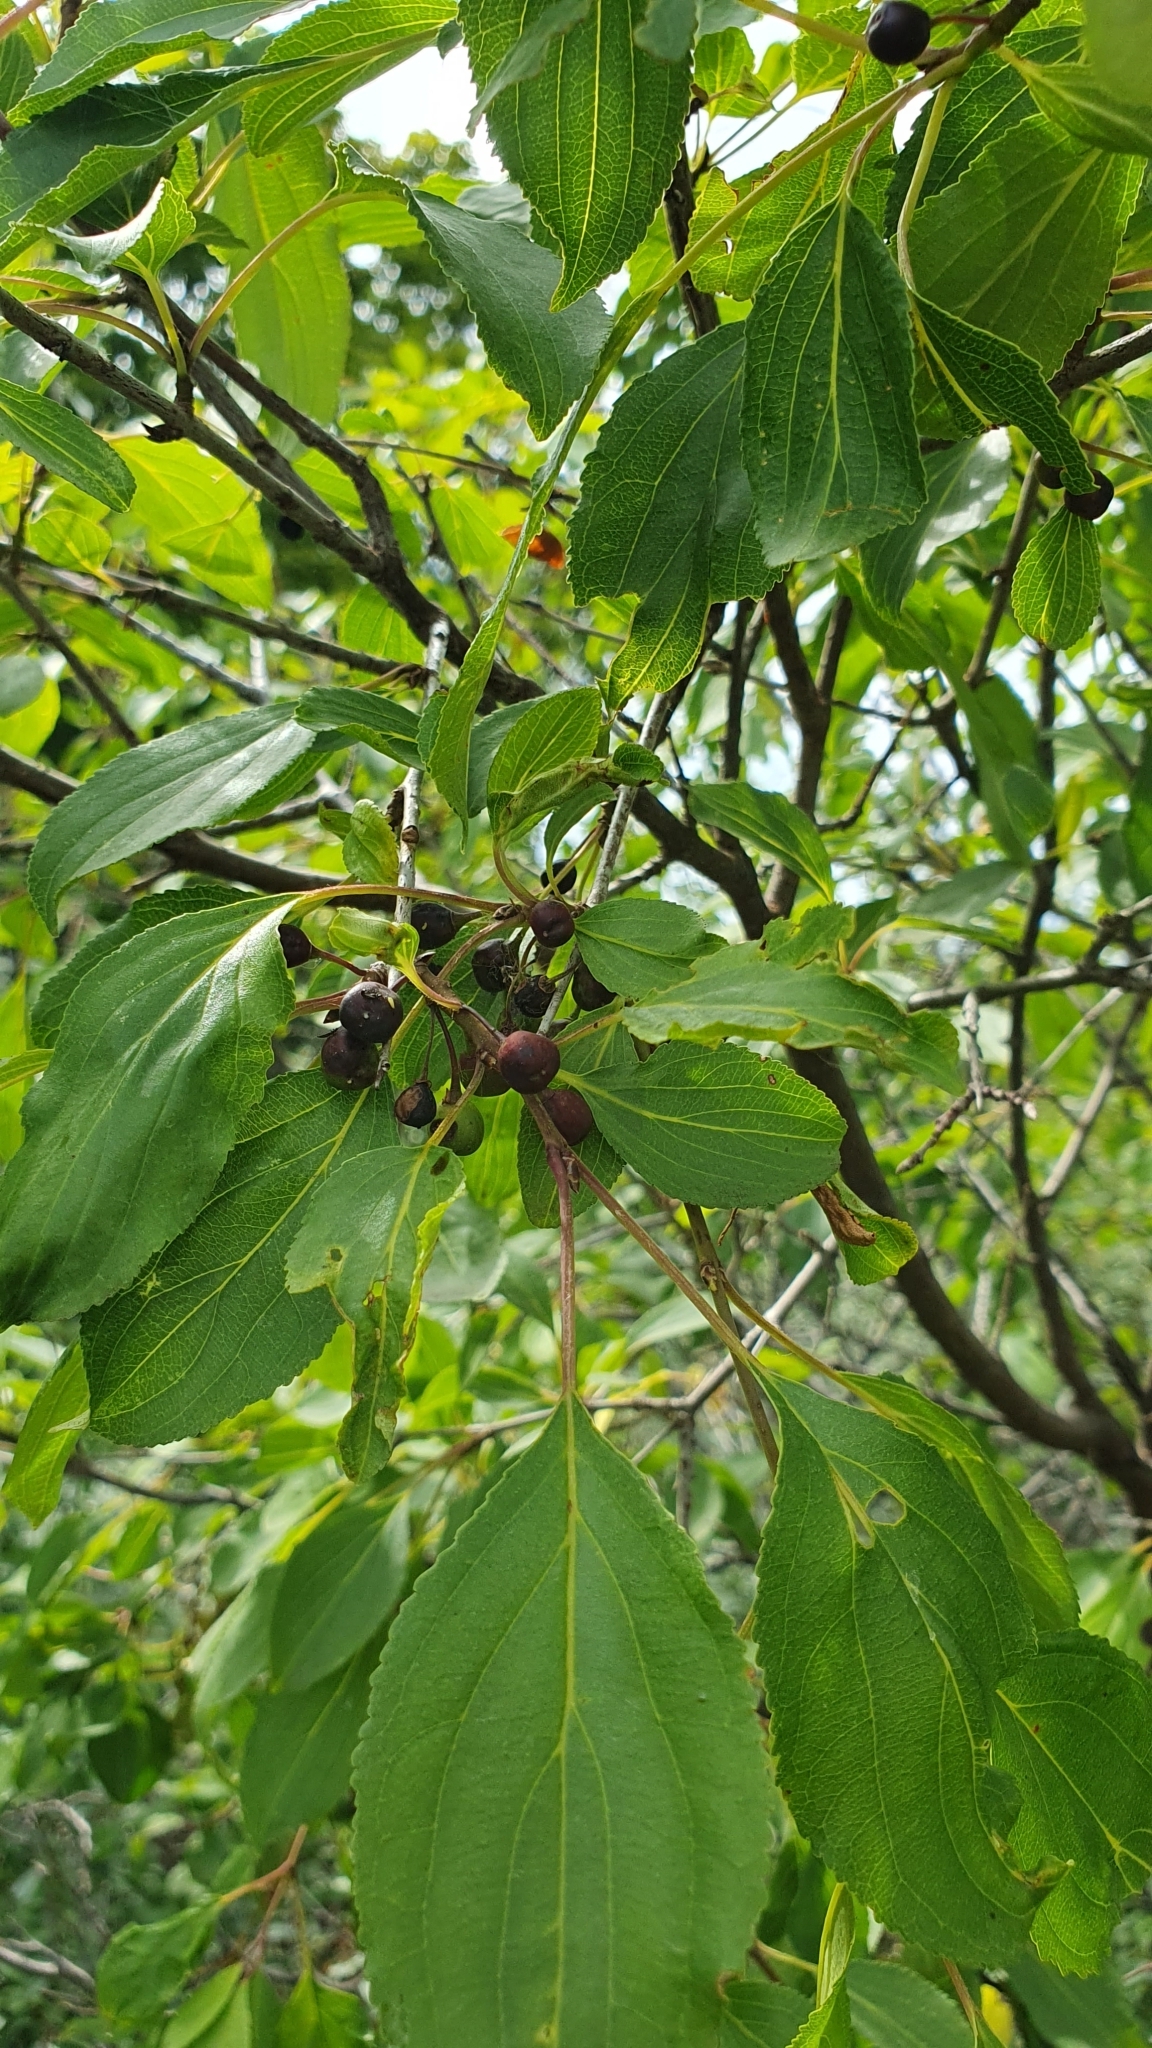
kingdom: Plantae
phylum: Tracheophyta
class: Magnoliopsida
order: Rosales
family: Rhamnaceae
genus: Rhamnus
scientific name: Rhamnus cathartica
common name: Common buckthorn
